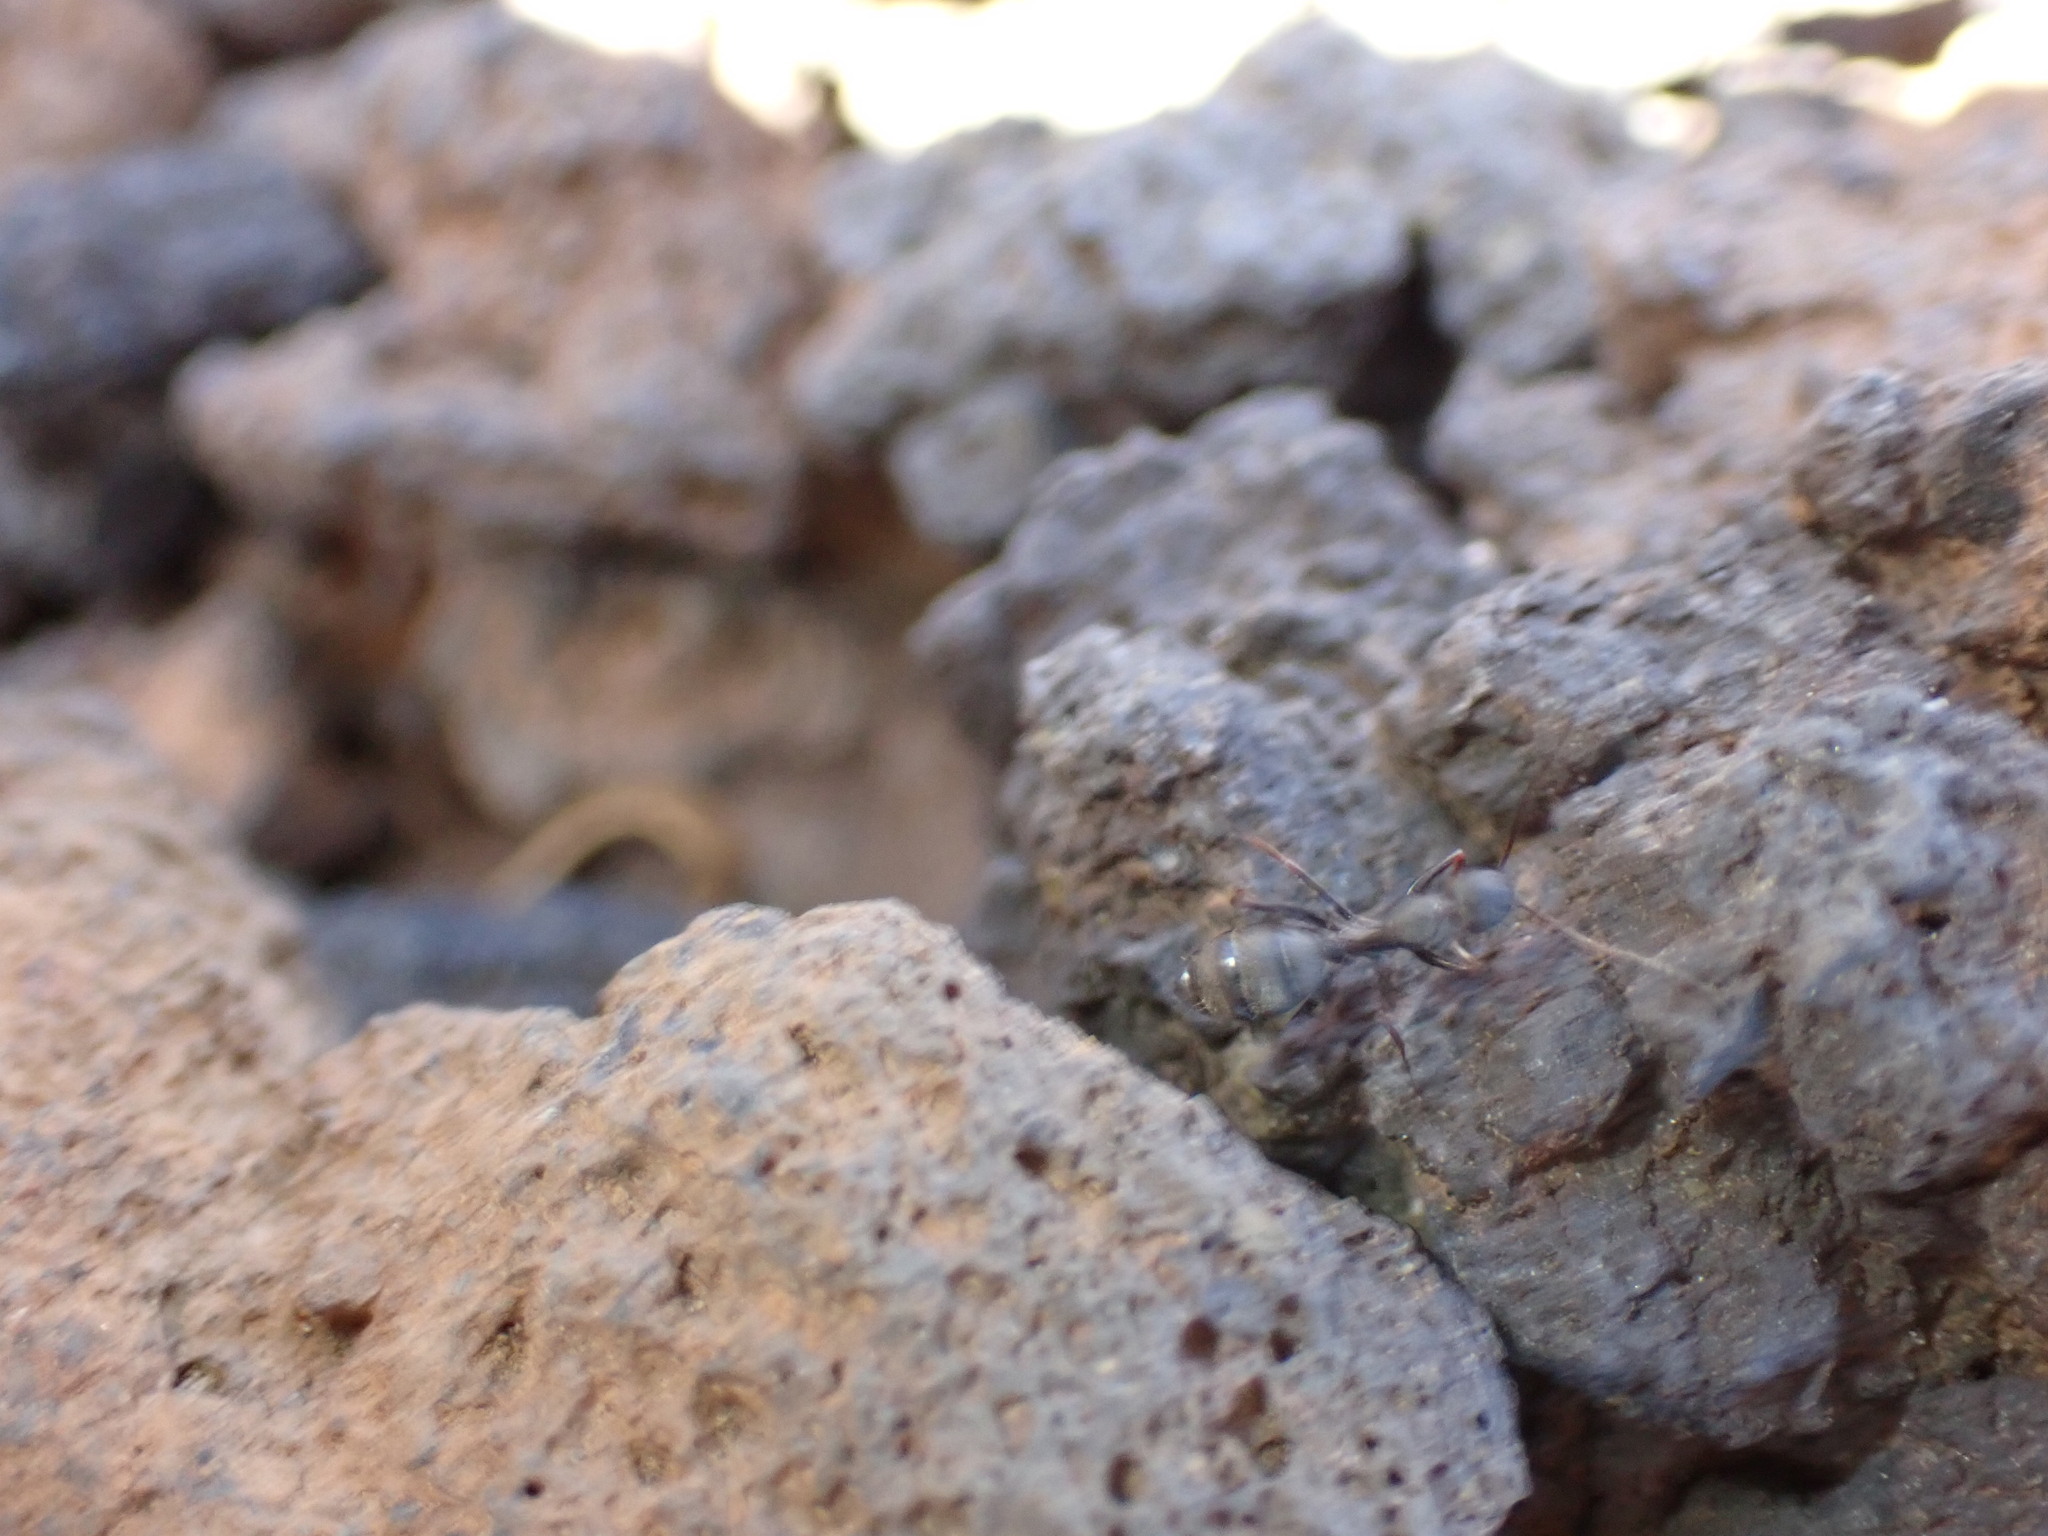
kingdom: Animalia
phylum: Arthropoda
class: Insecta
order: Hymenoptera
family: Formicidae
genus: Camponotus
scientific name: Camponotus feai
